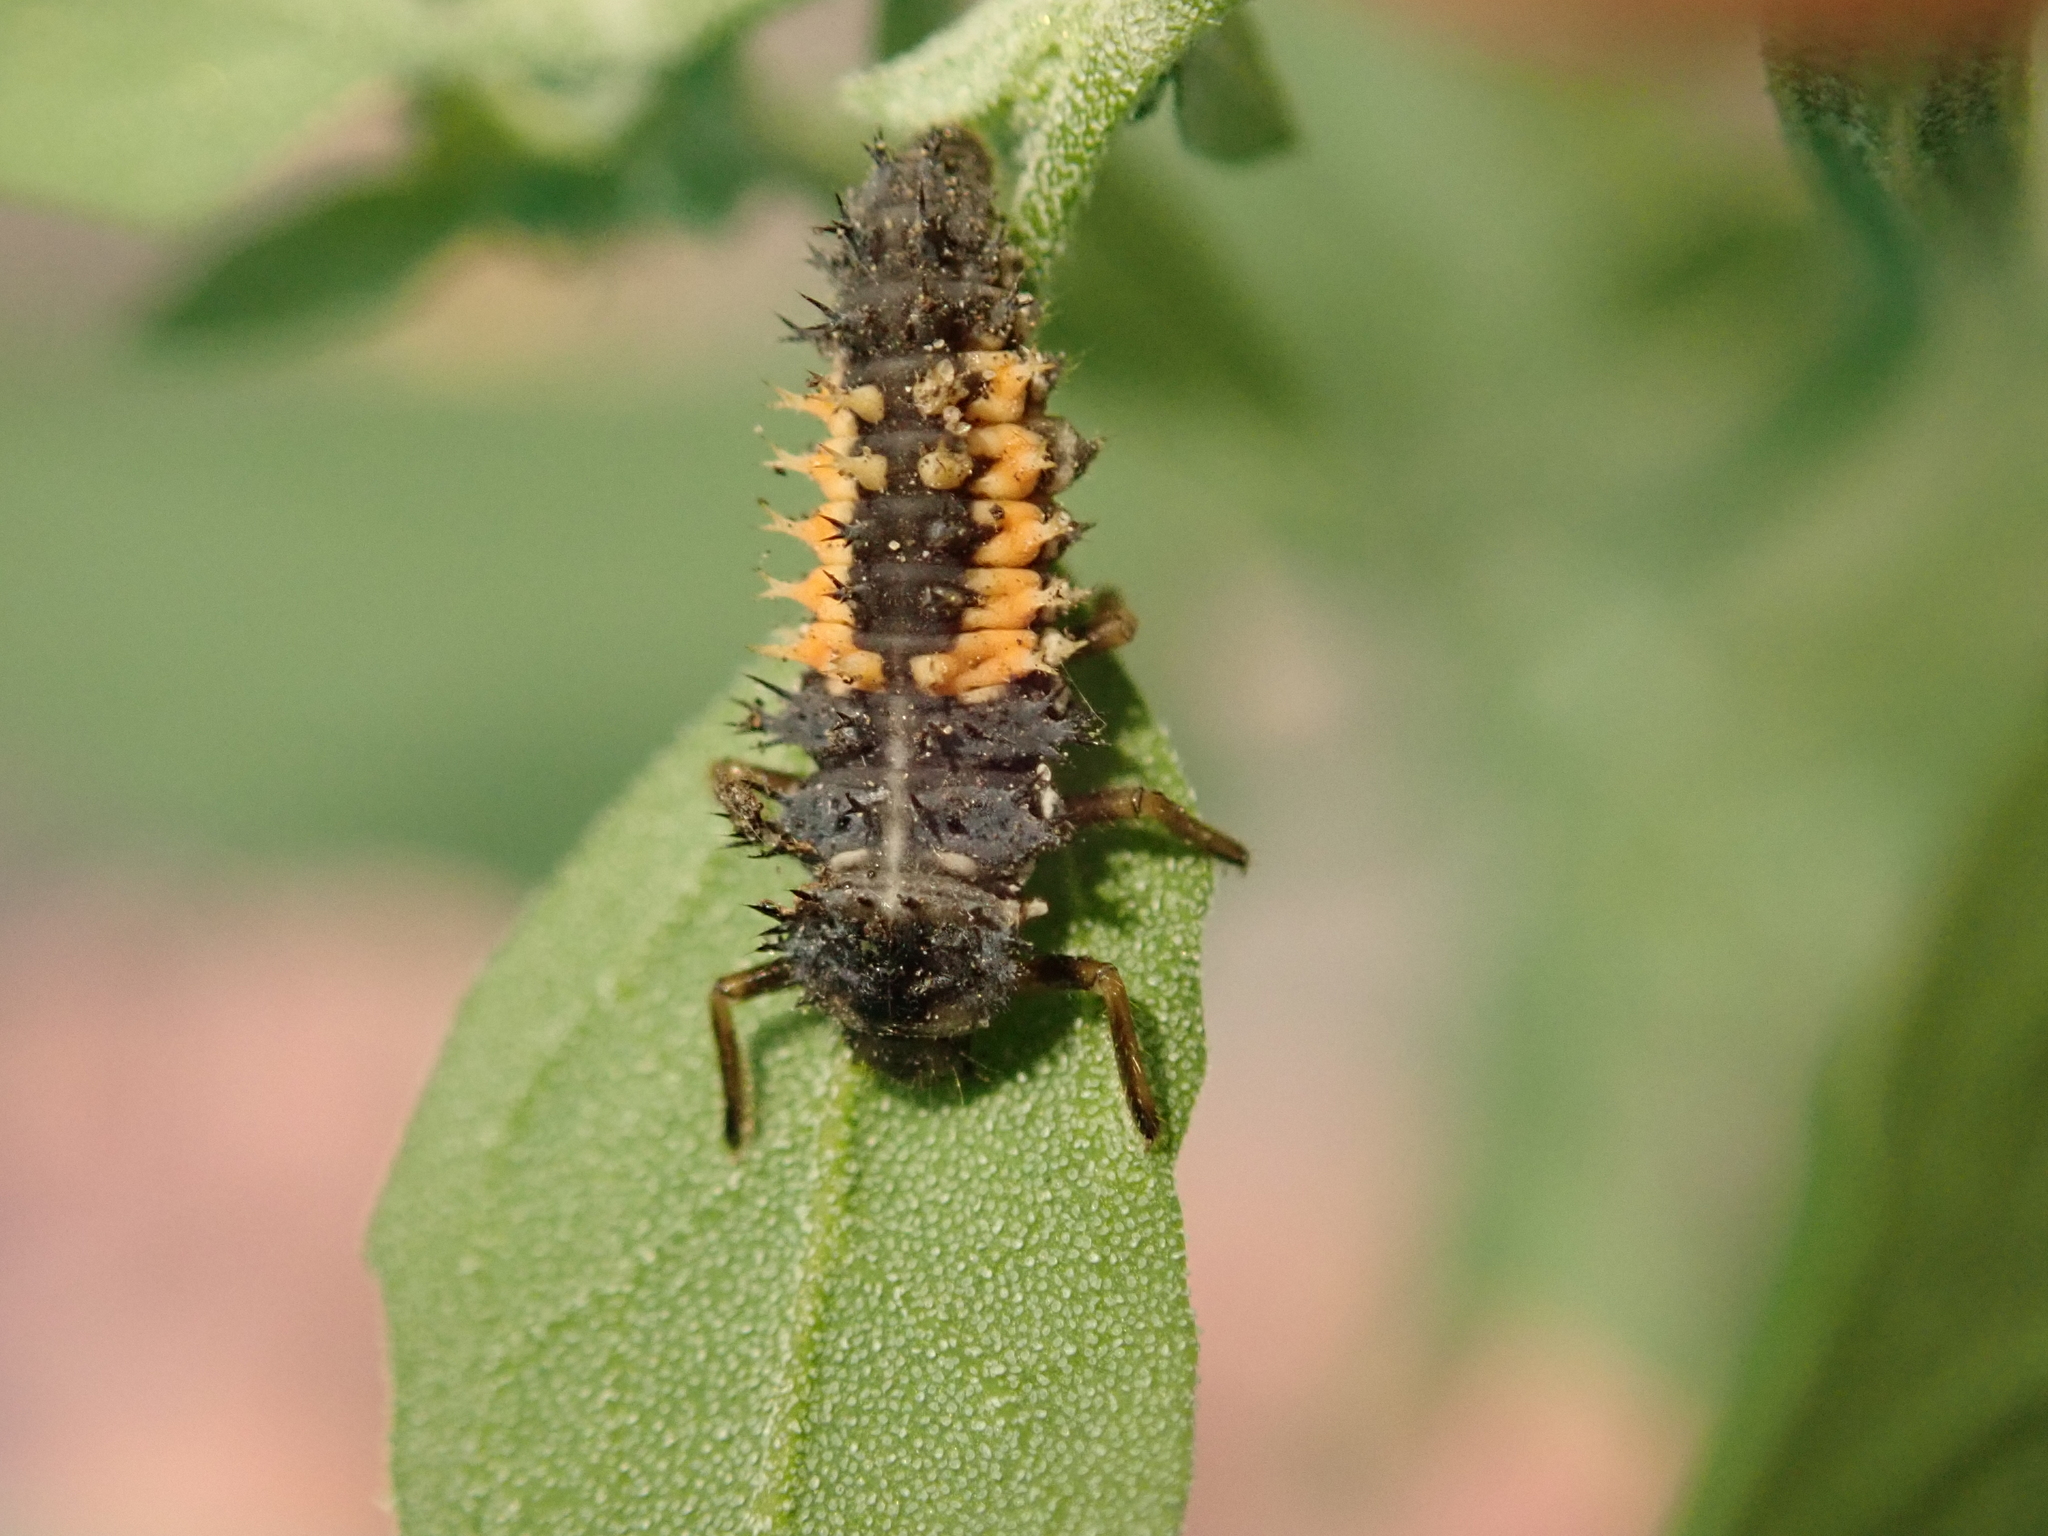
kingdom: Animalia
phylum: Arthropoda
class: Insecta
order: Coleoptera
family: Coccinellidae
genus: Harmonia
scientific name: Harmonia axyridis
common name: Harlequin ladybird
